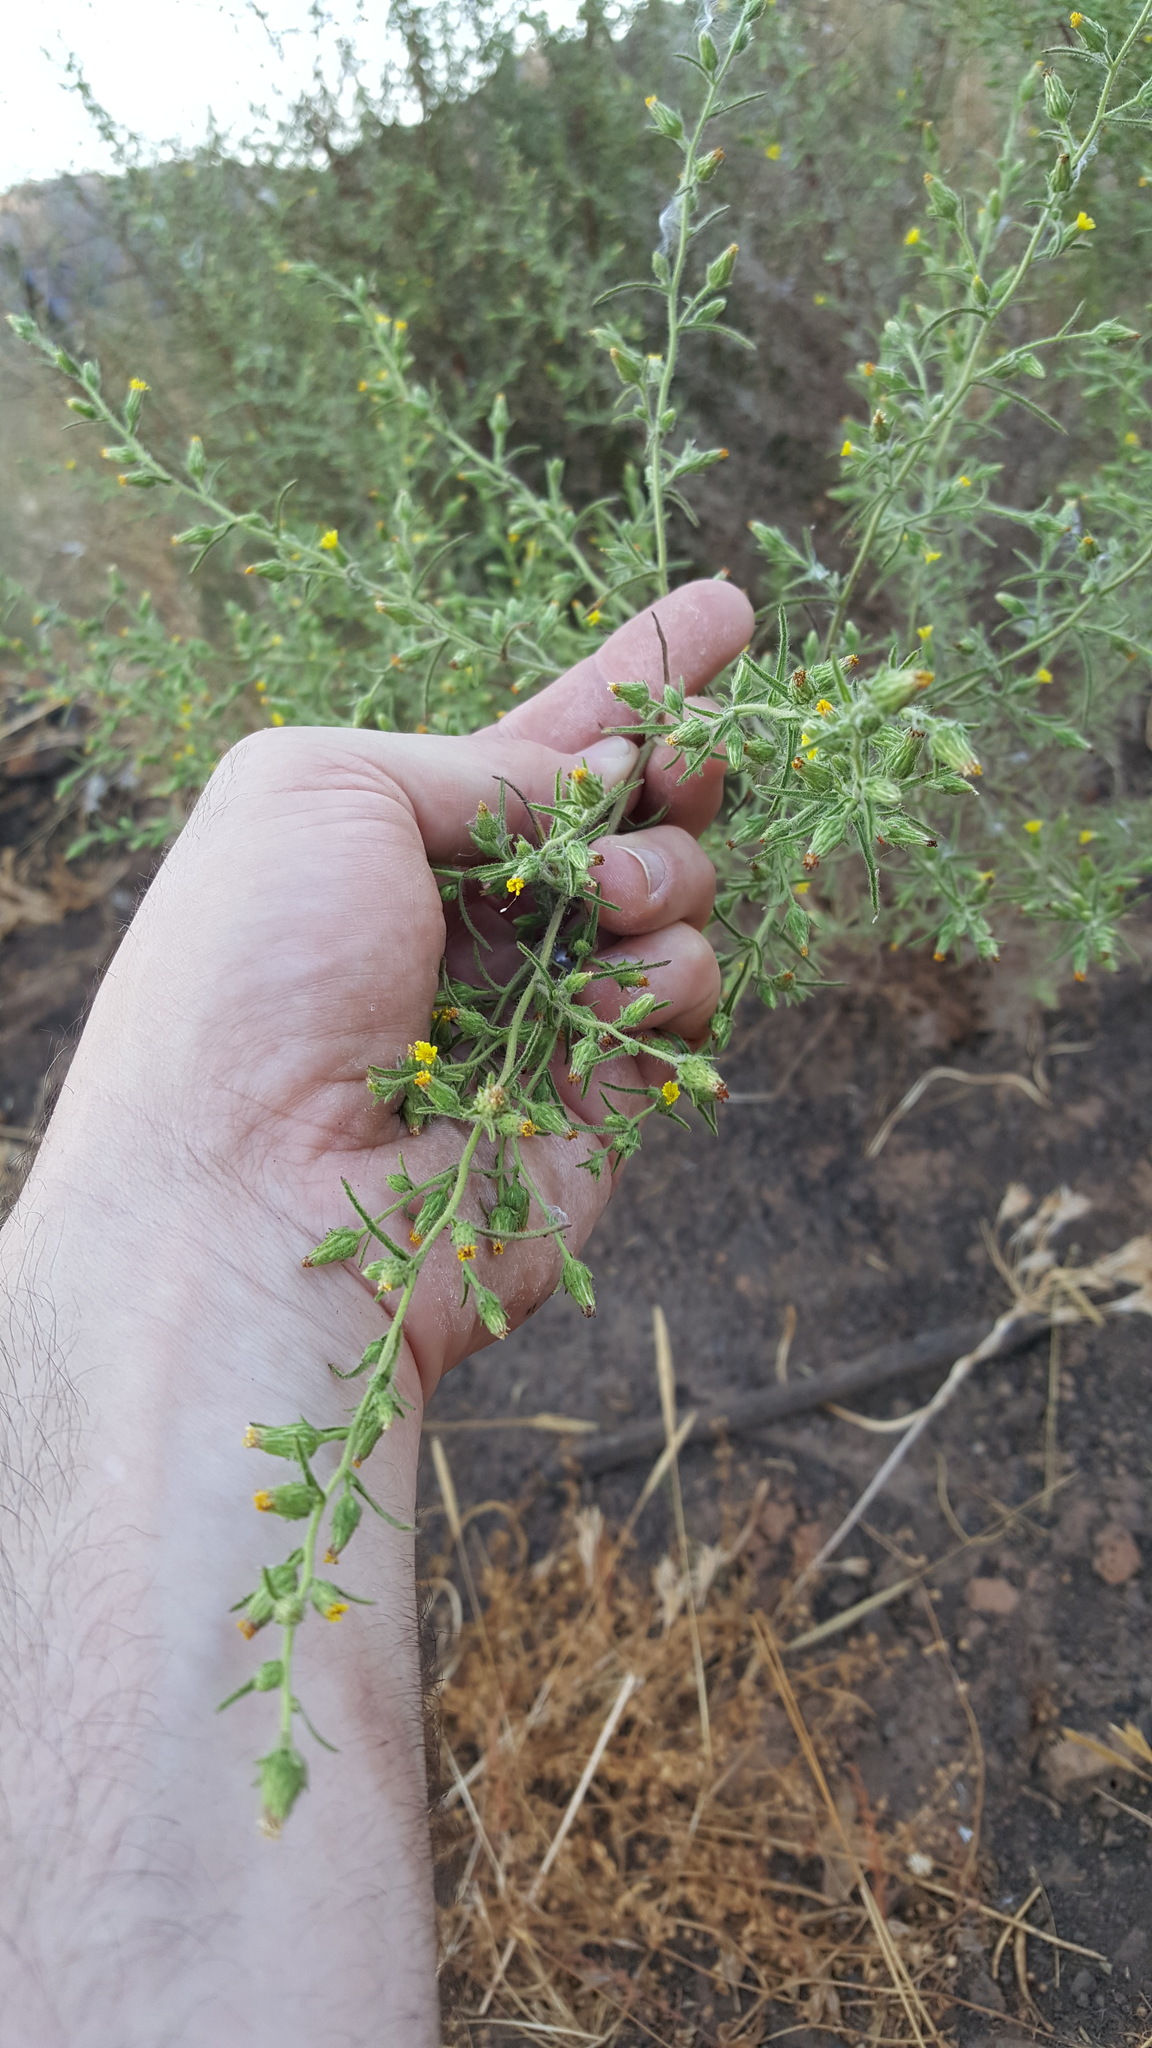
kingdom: Plantae
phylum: Tracheophyta
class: Magnoliopsida
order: Asterales
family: Asteraceae
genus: Dittrichia
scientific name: Dittrichia graveolens
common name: Stinking fleabane
